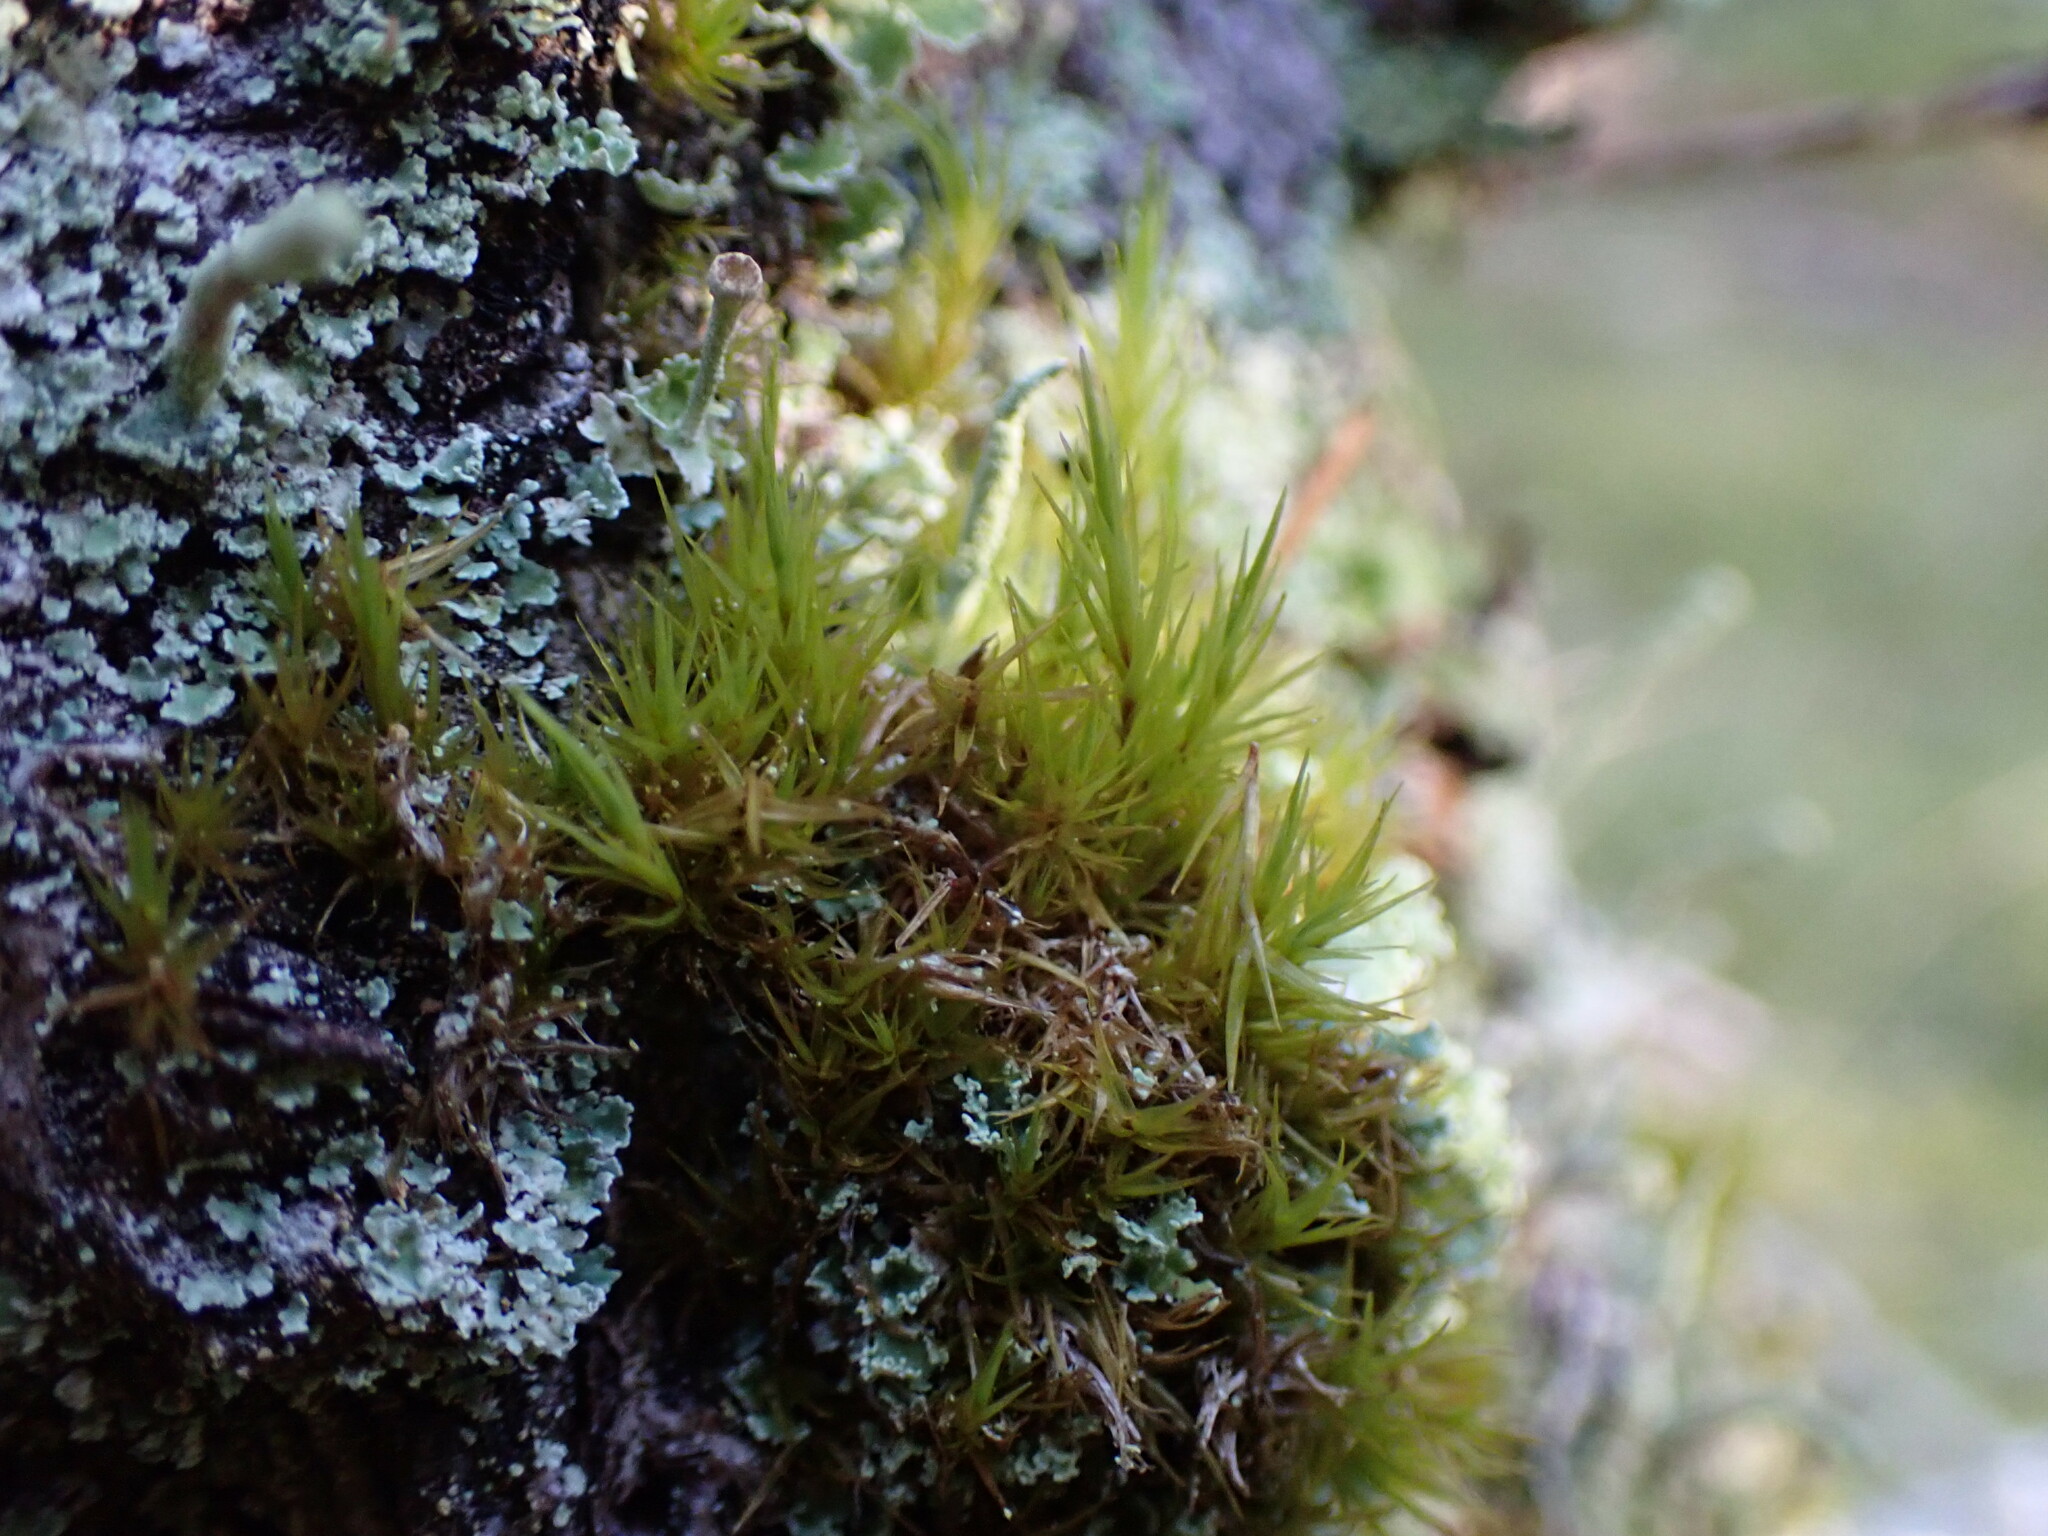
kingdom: Plantae
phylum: Bryophyta
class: Bryopsida
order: Dicranales
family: Dicranaceae
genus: Orthodicranum
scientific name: Orthodicranum tauricum
